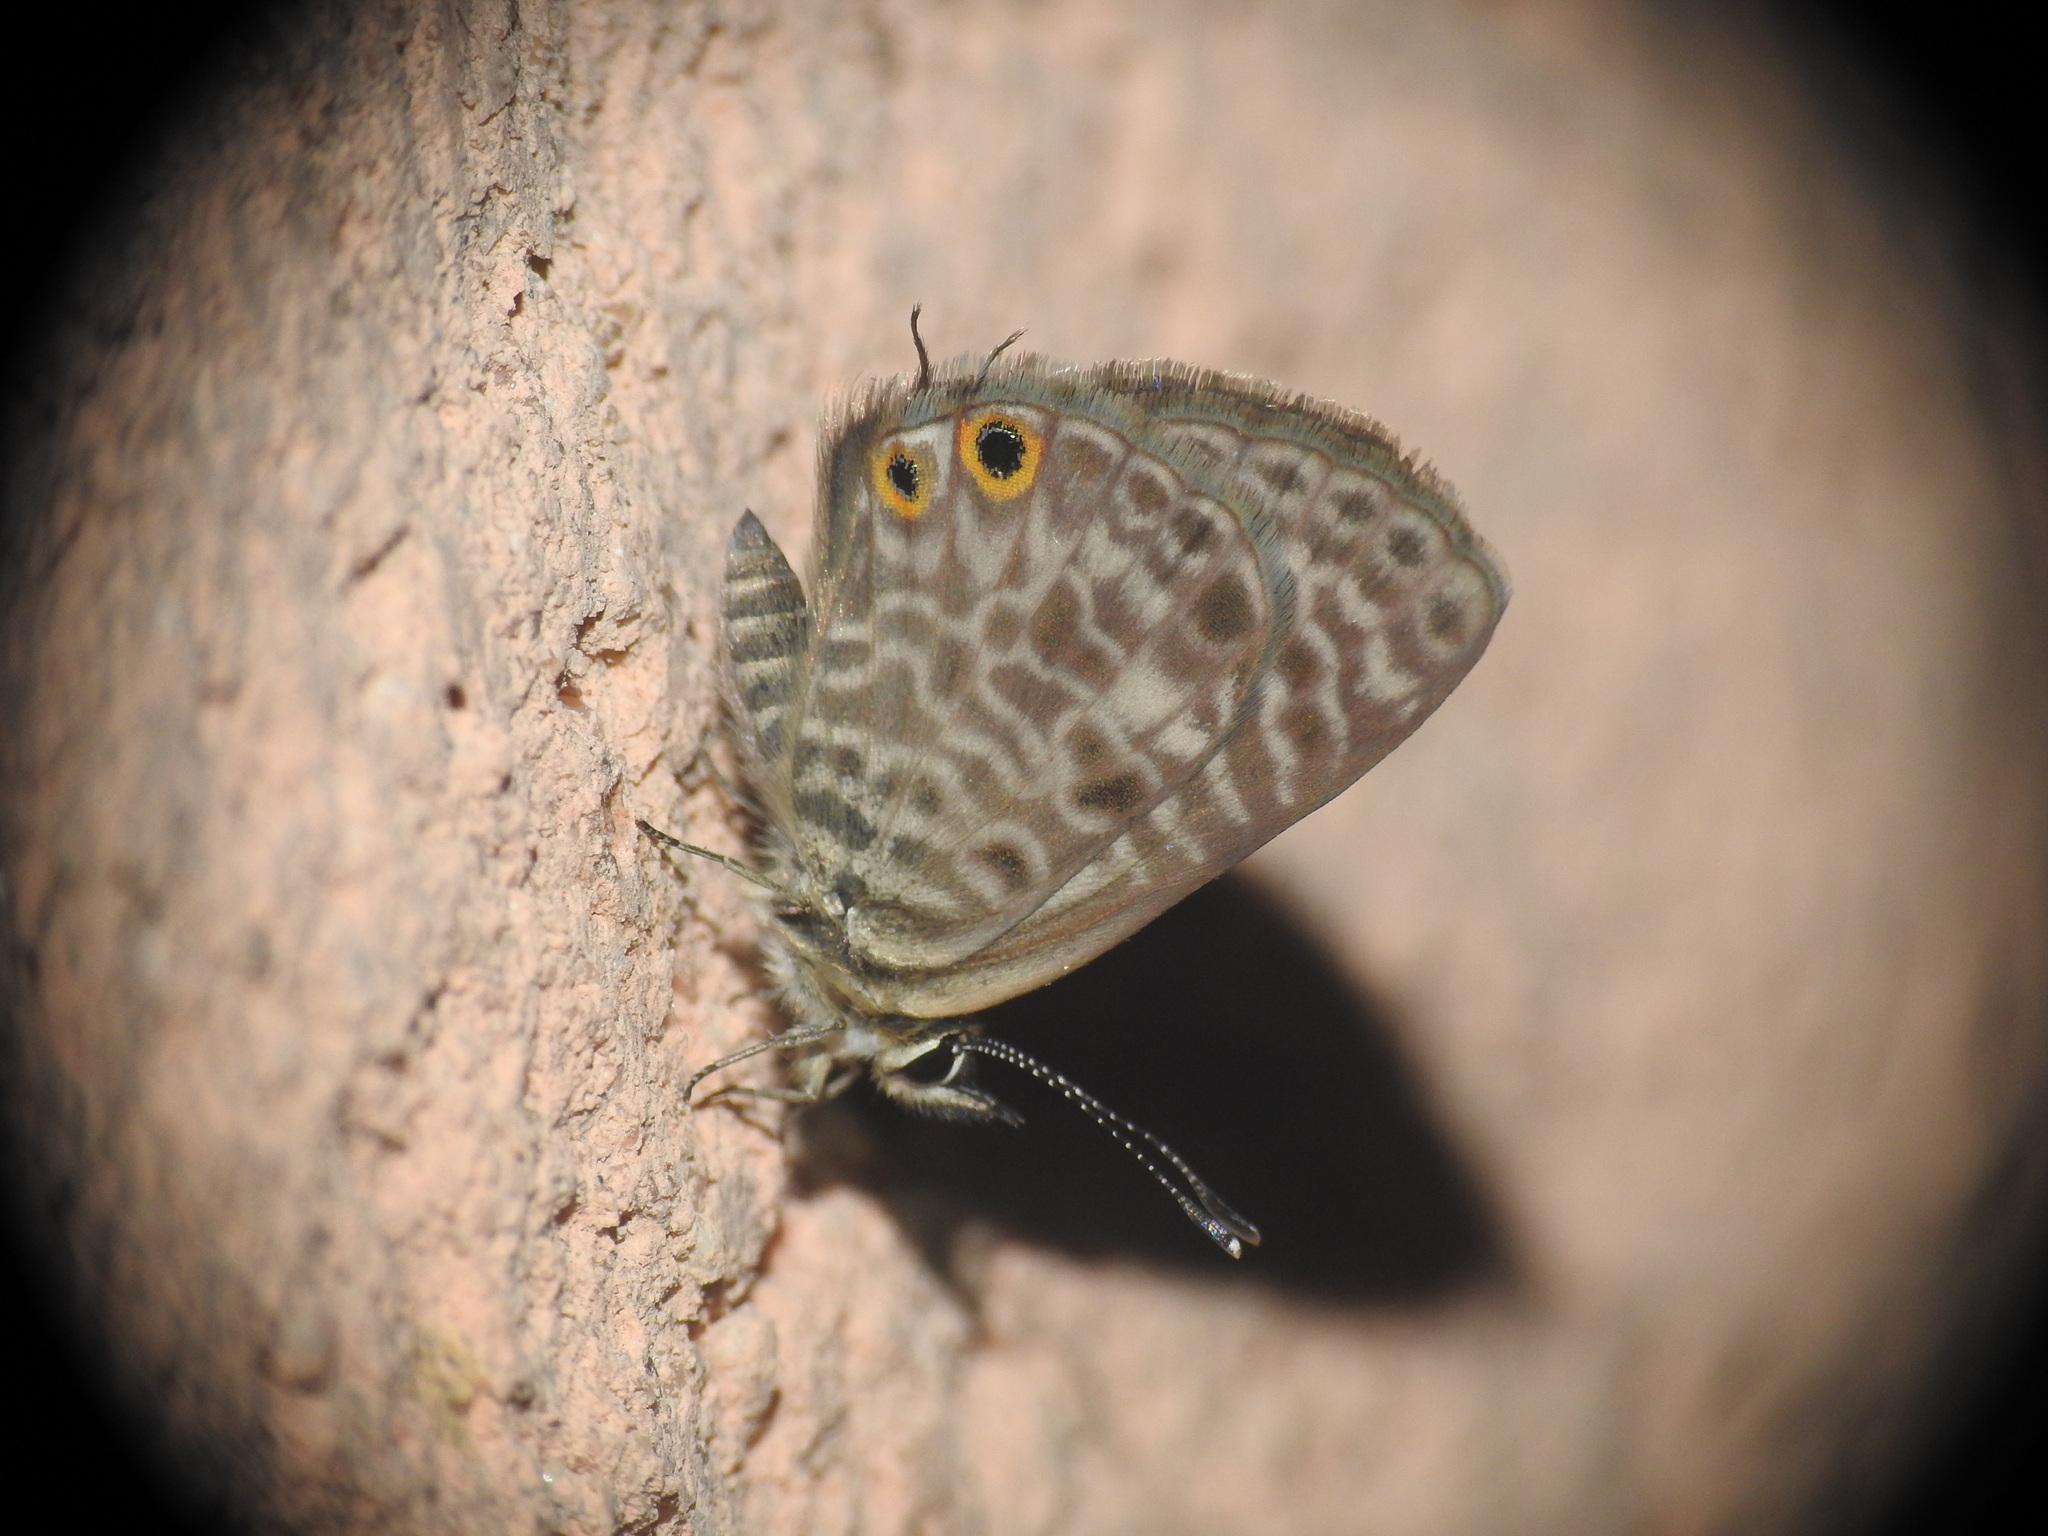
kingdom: Animalia
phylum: Arthropoda
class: Insecta
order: Lepidoptera
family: Lycaenidae
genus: Leptotes
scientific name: Leptotes pirithous
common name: Lang's short-tailed blue
